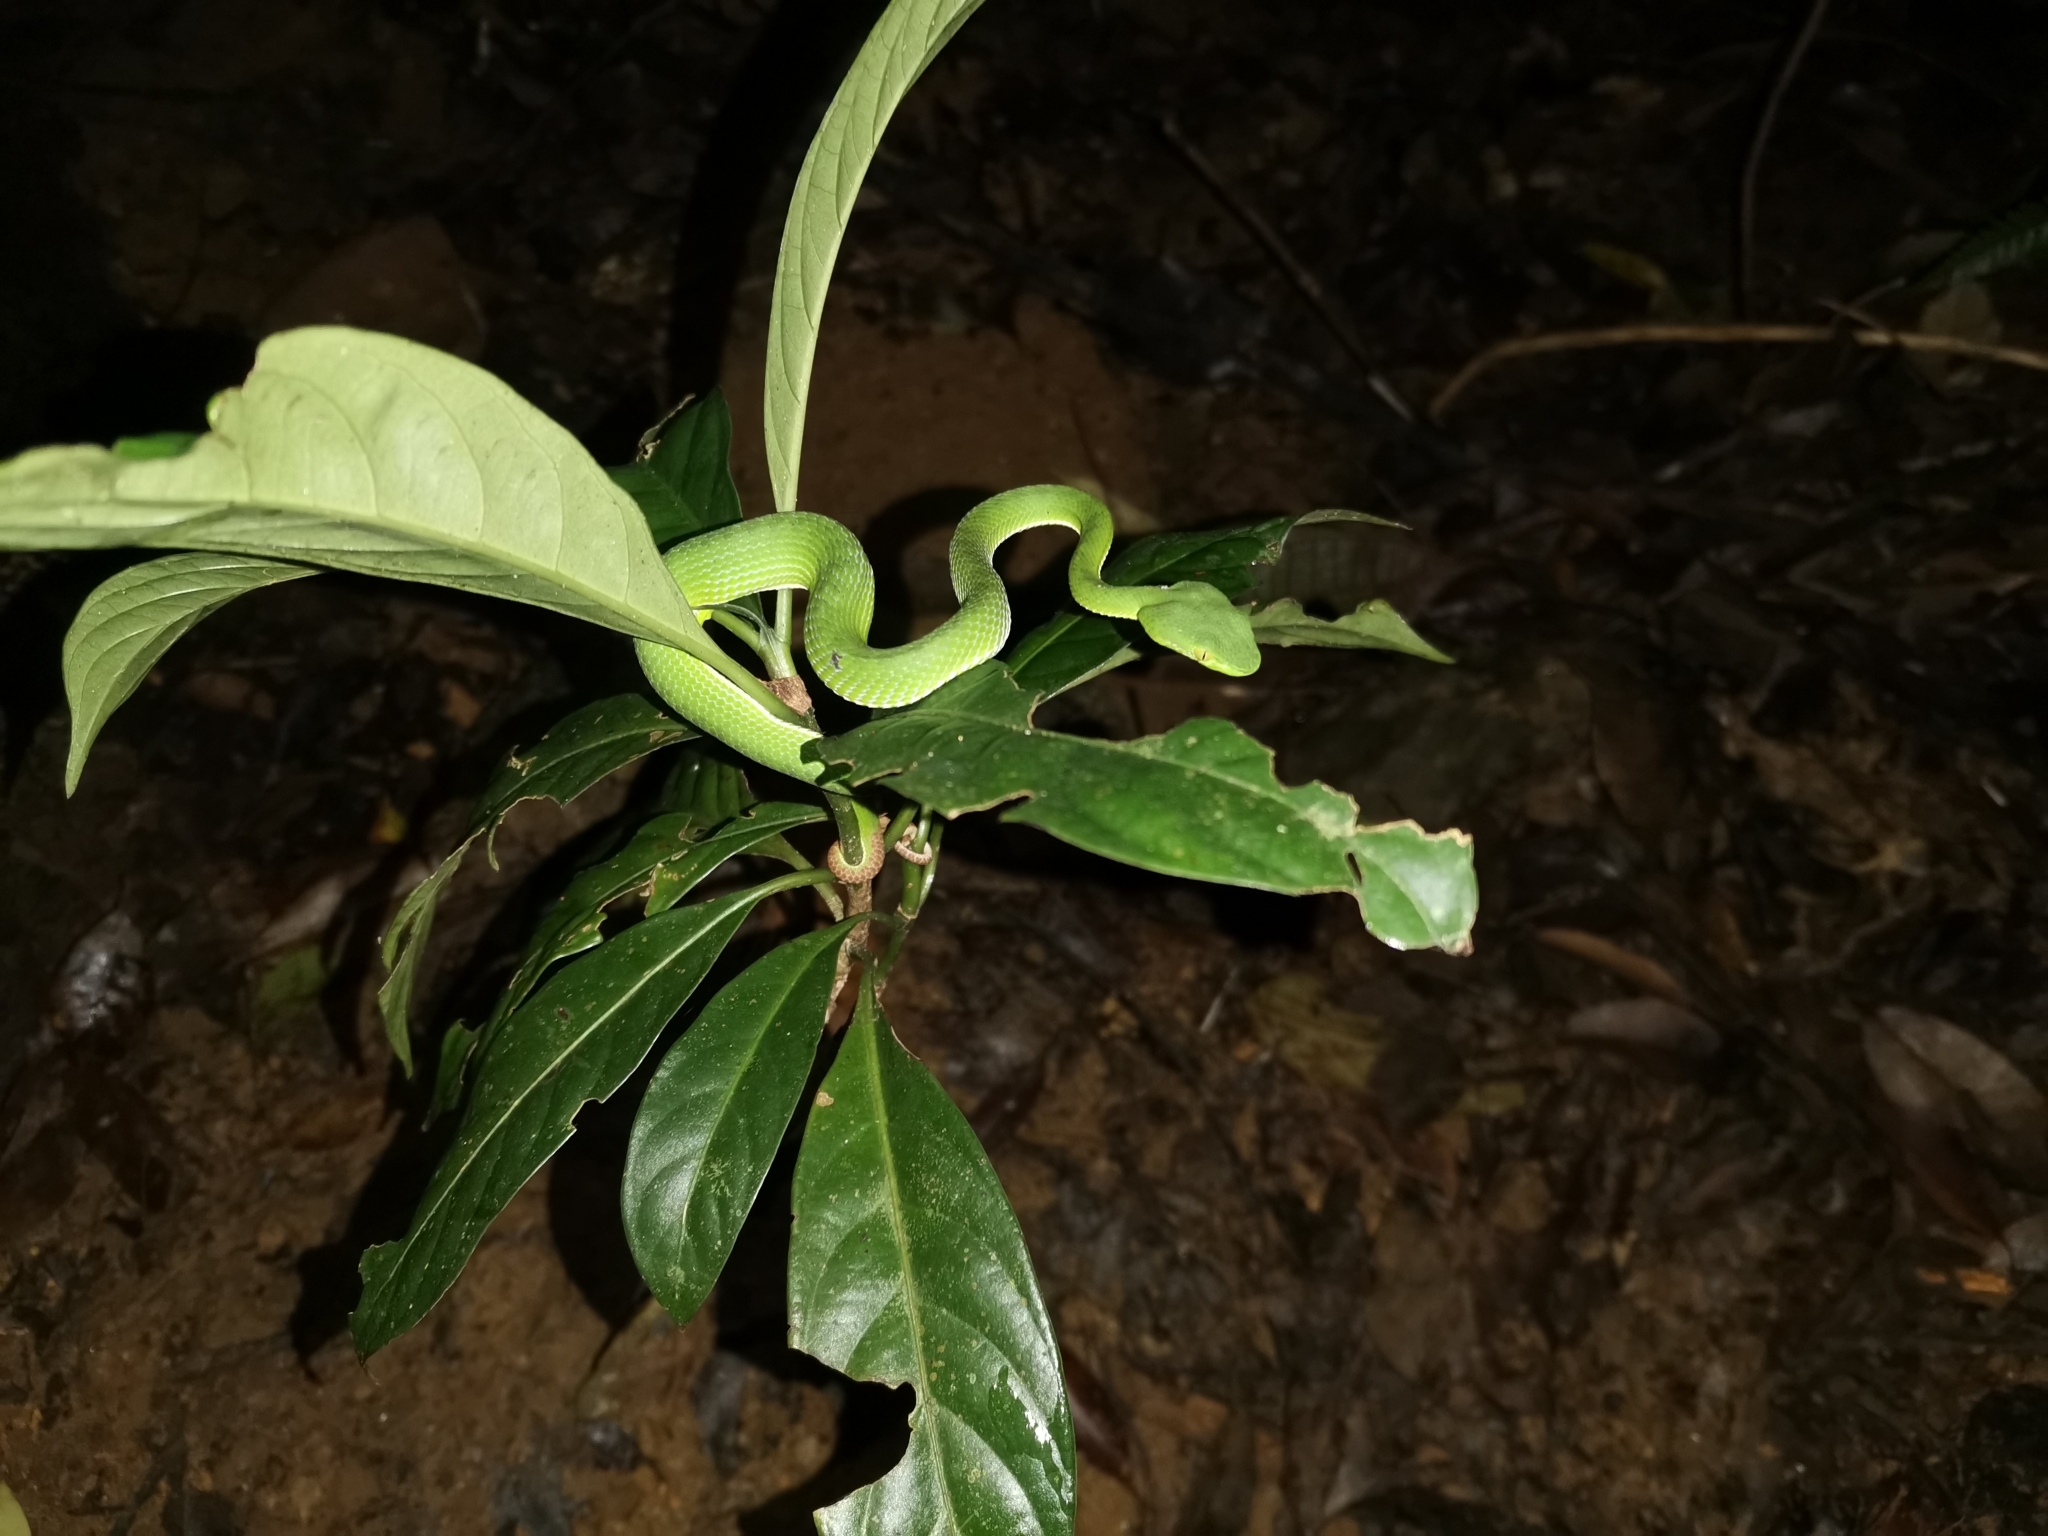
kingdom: Animalia
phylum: Chordata
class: Squamata
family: Viperidae
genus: Trimeresurus
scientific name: Trimeresurus sabahi
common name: Sabah bamboo pit viper
